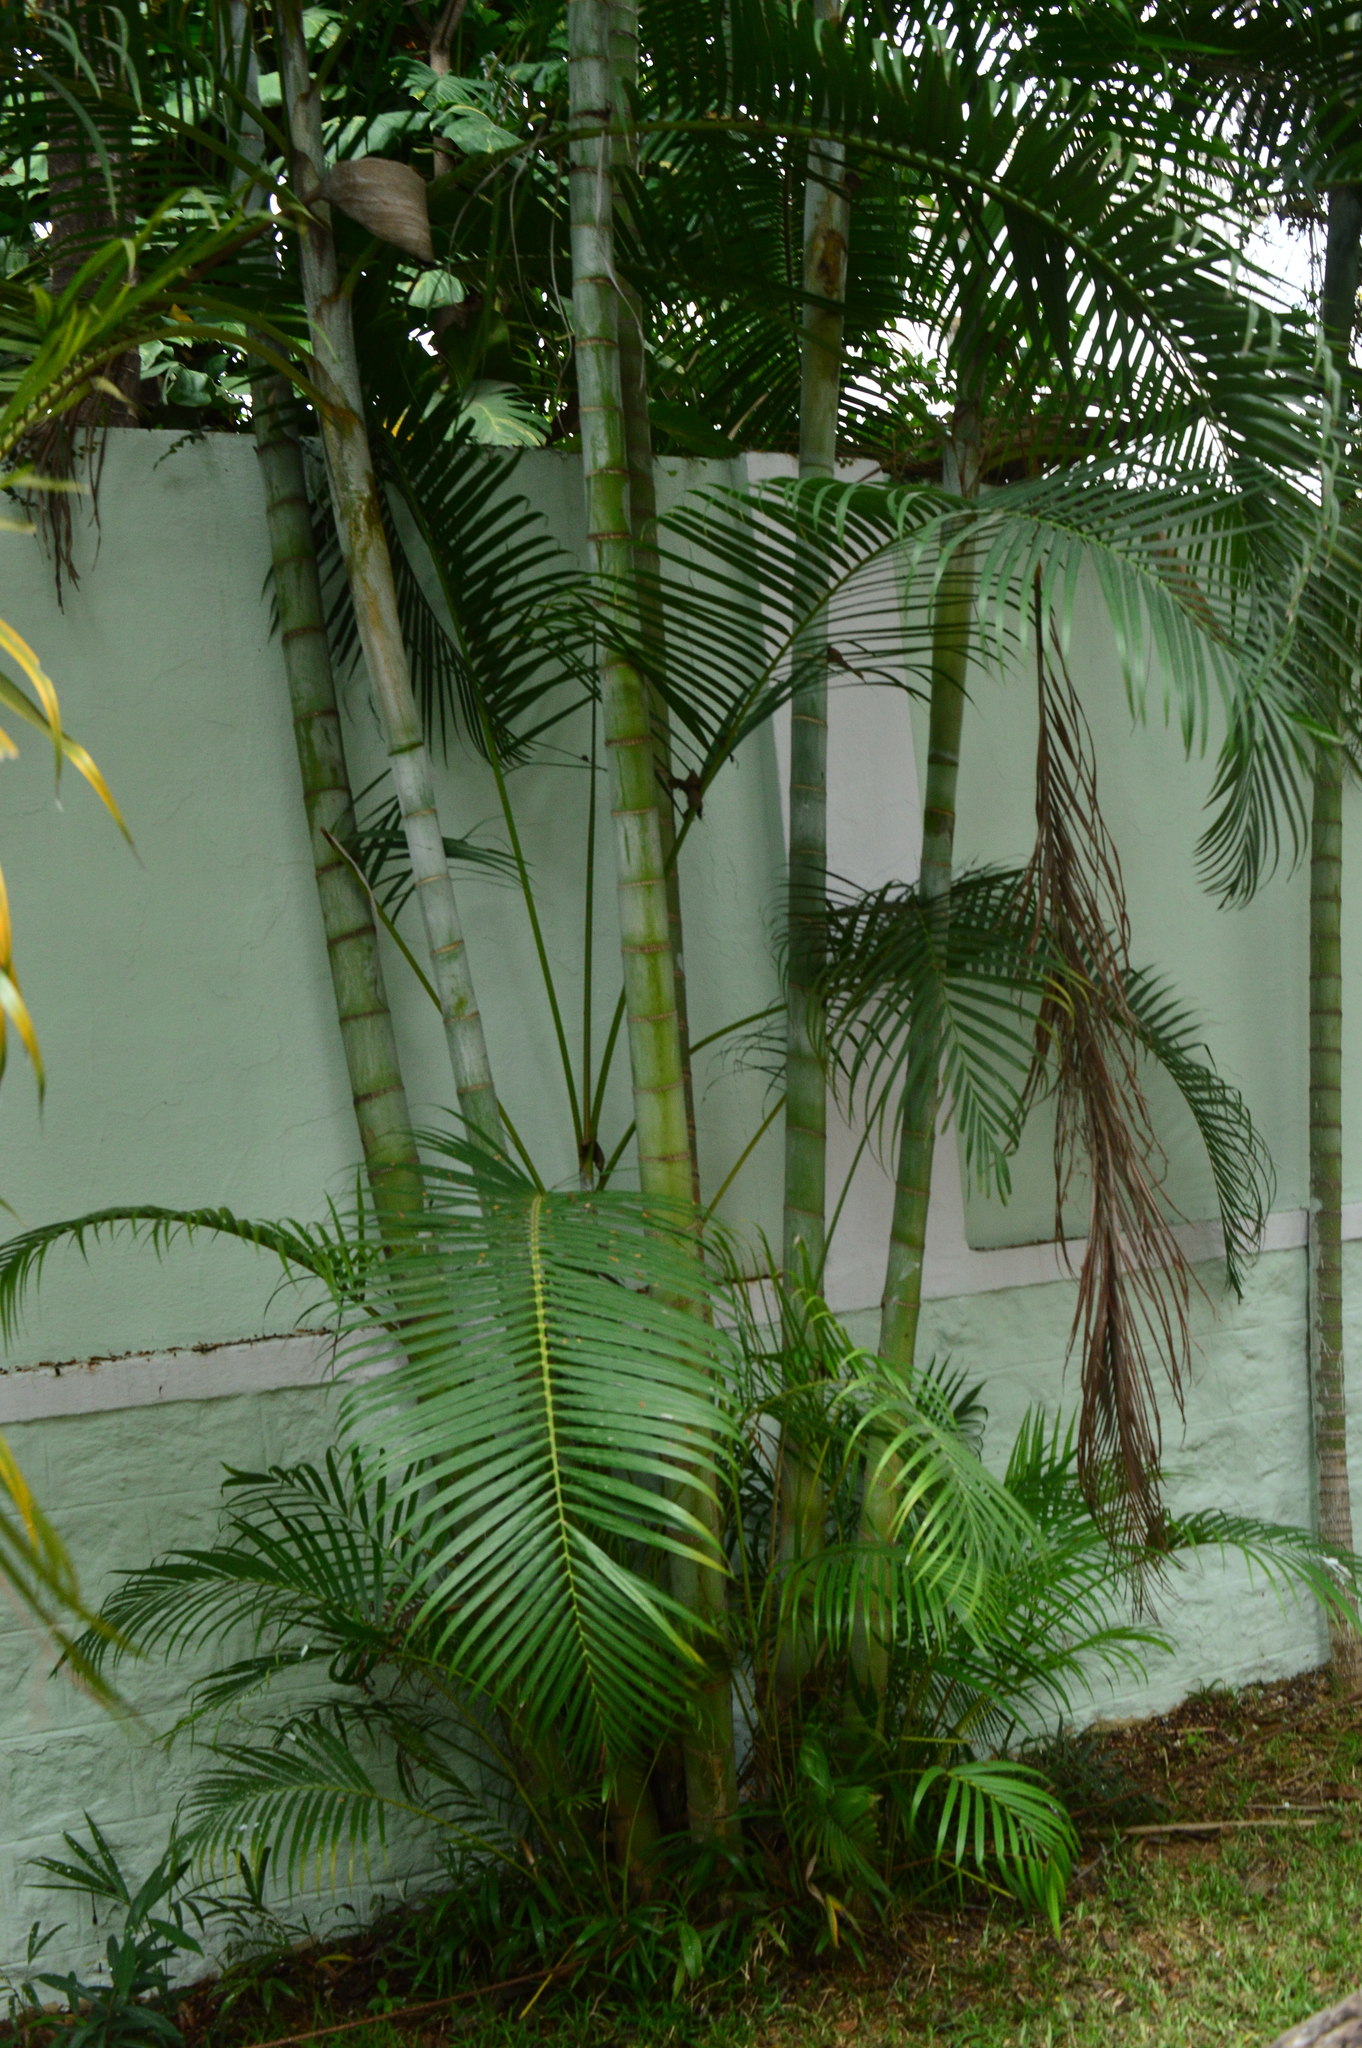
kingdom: Plantae
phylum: Tracheophyta
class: Liliopsida
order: Arecales
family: Arecaceae
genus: Dypsis
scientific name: Dypsis lutescens
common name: Yellow butterfly palm
